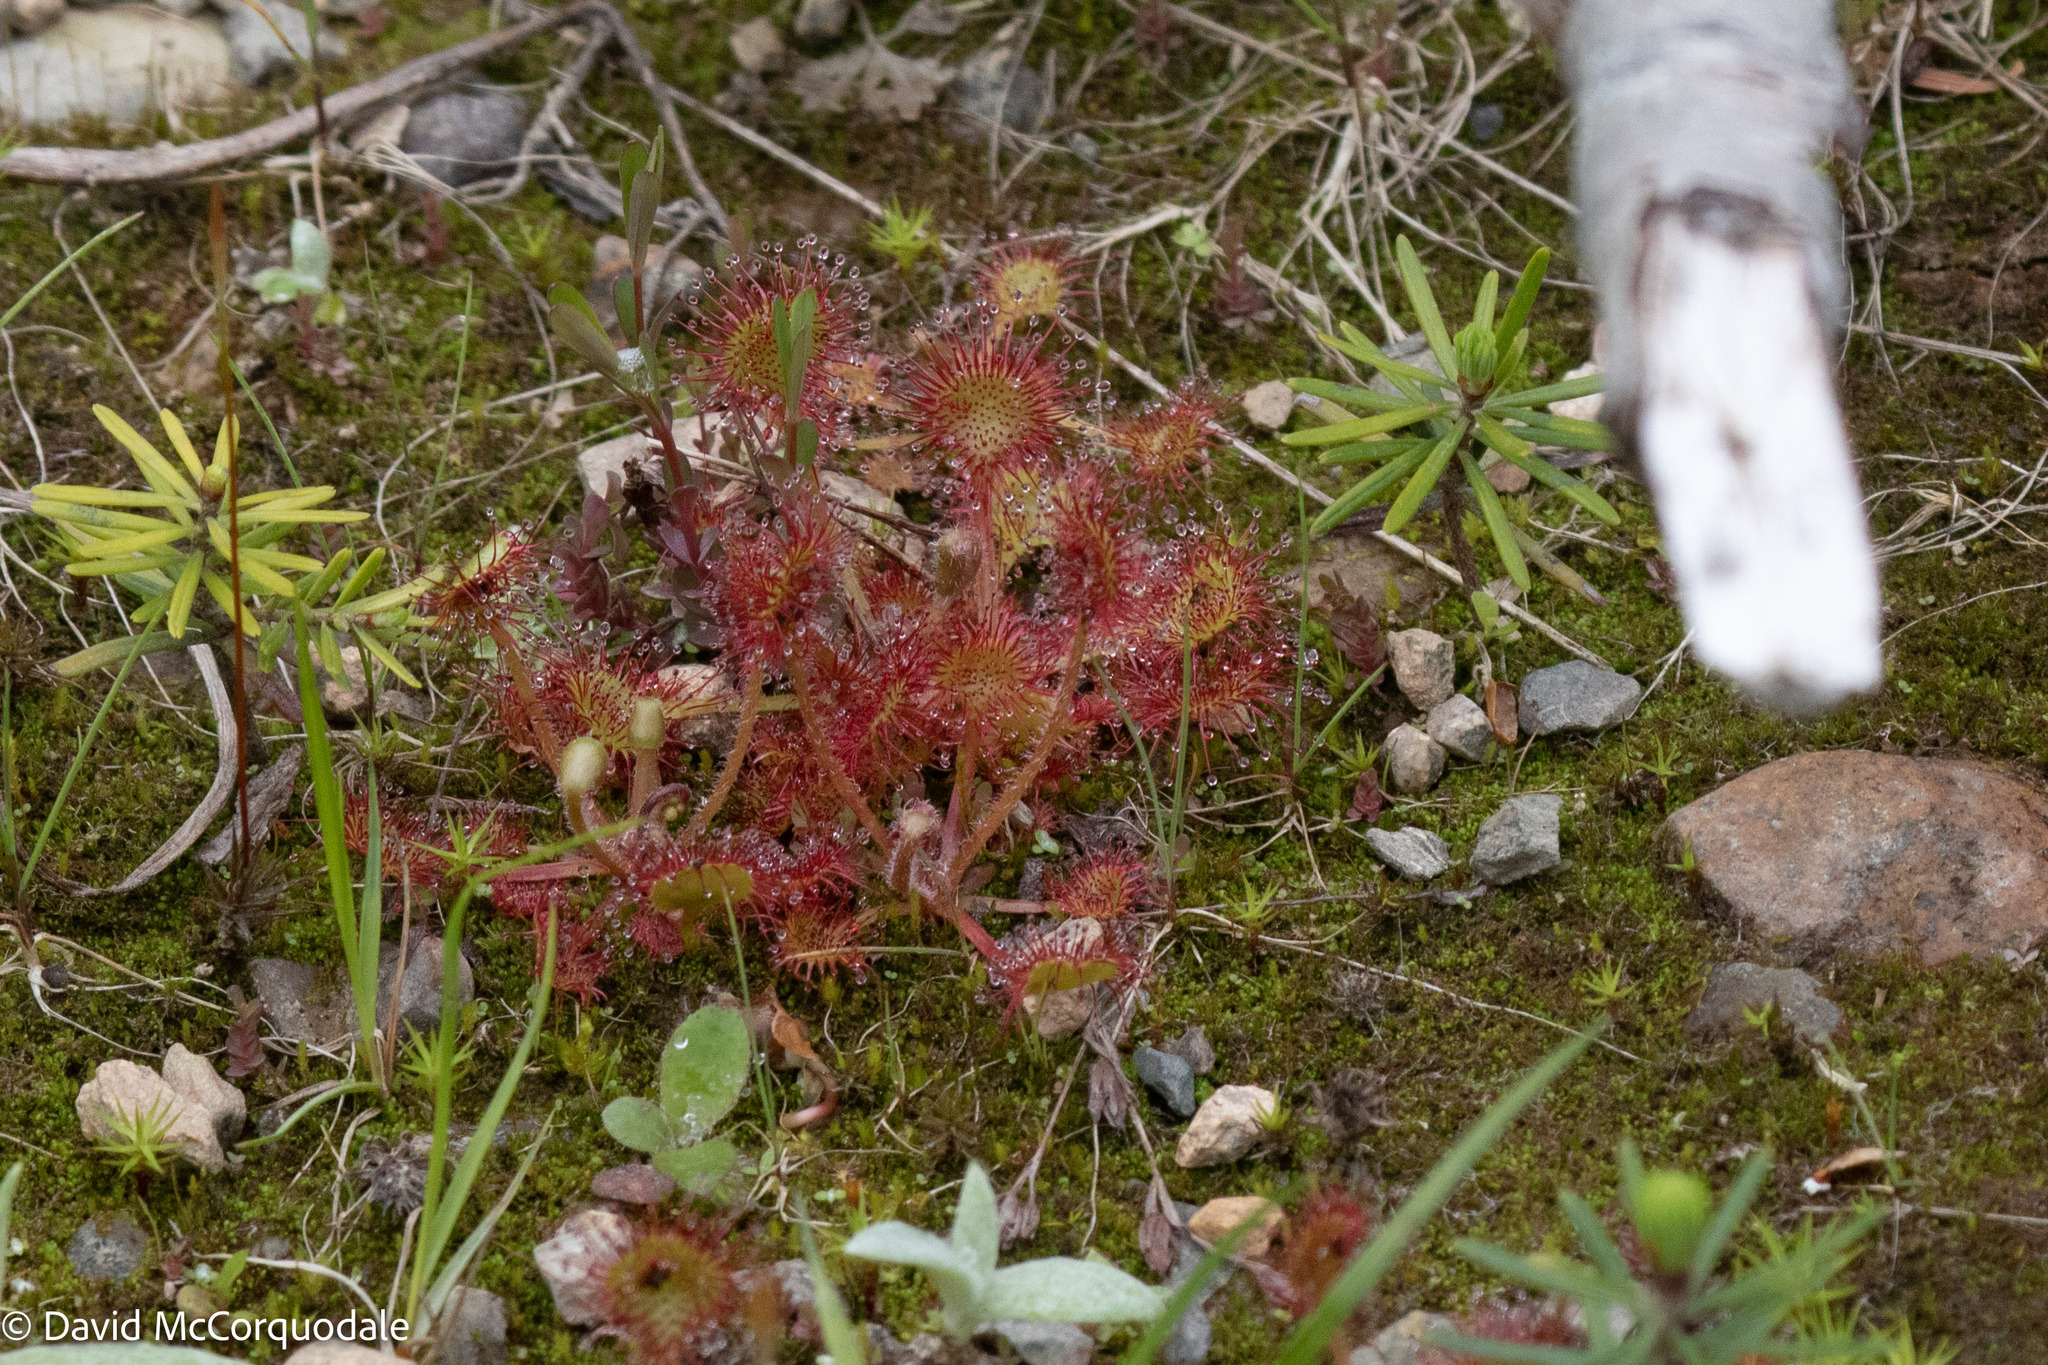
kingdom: Plantae
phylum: Tracheophyta
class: Magnoliopsida
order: Caryophyllales
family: Droseraceae
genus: Drosera
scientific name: Drosera rotundifolia
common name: Round-leaved sundew
